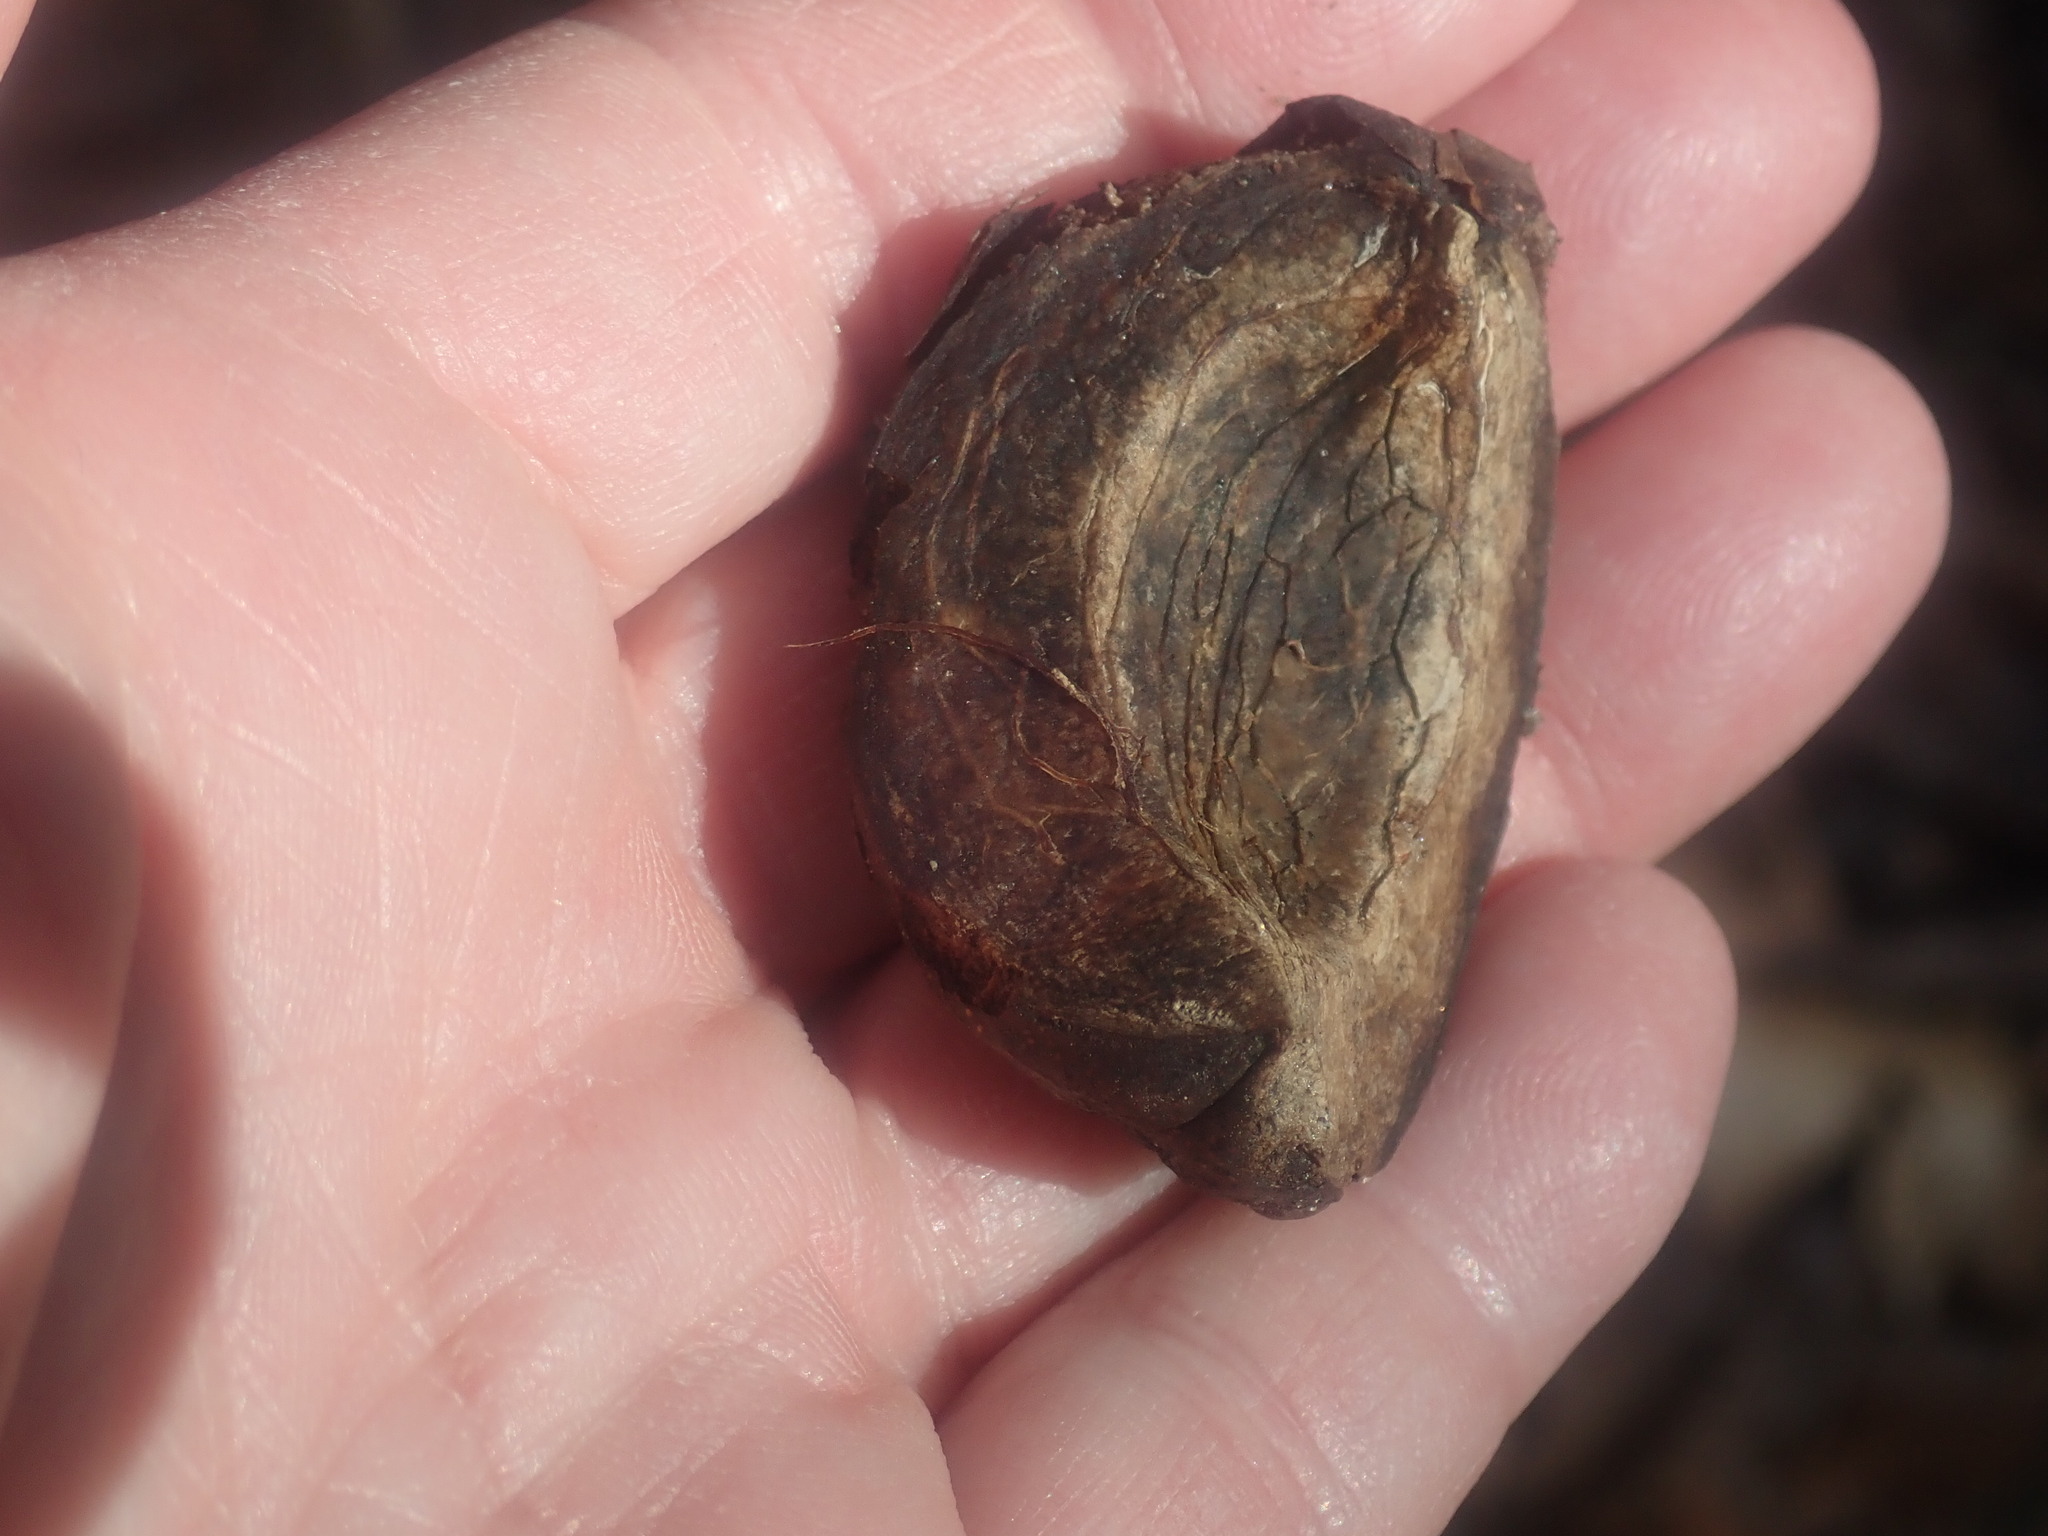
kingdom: Plantae
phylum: Tracheophyta
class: Magnoliopsida
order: Fagales
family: Juglandaceae
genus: Carya
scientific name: Carya ovata
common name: Shagbark hickory
